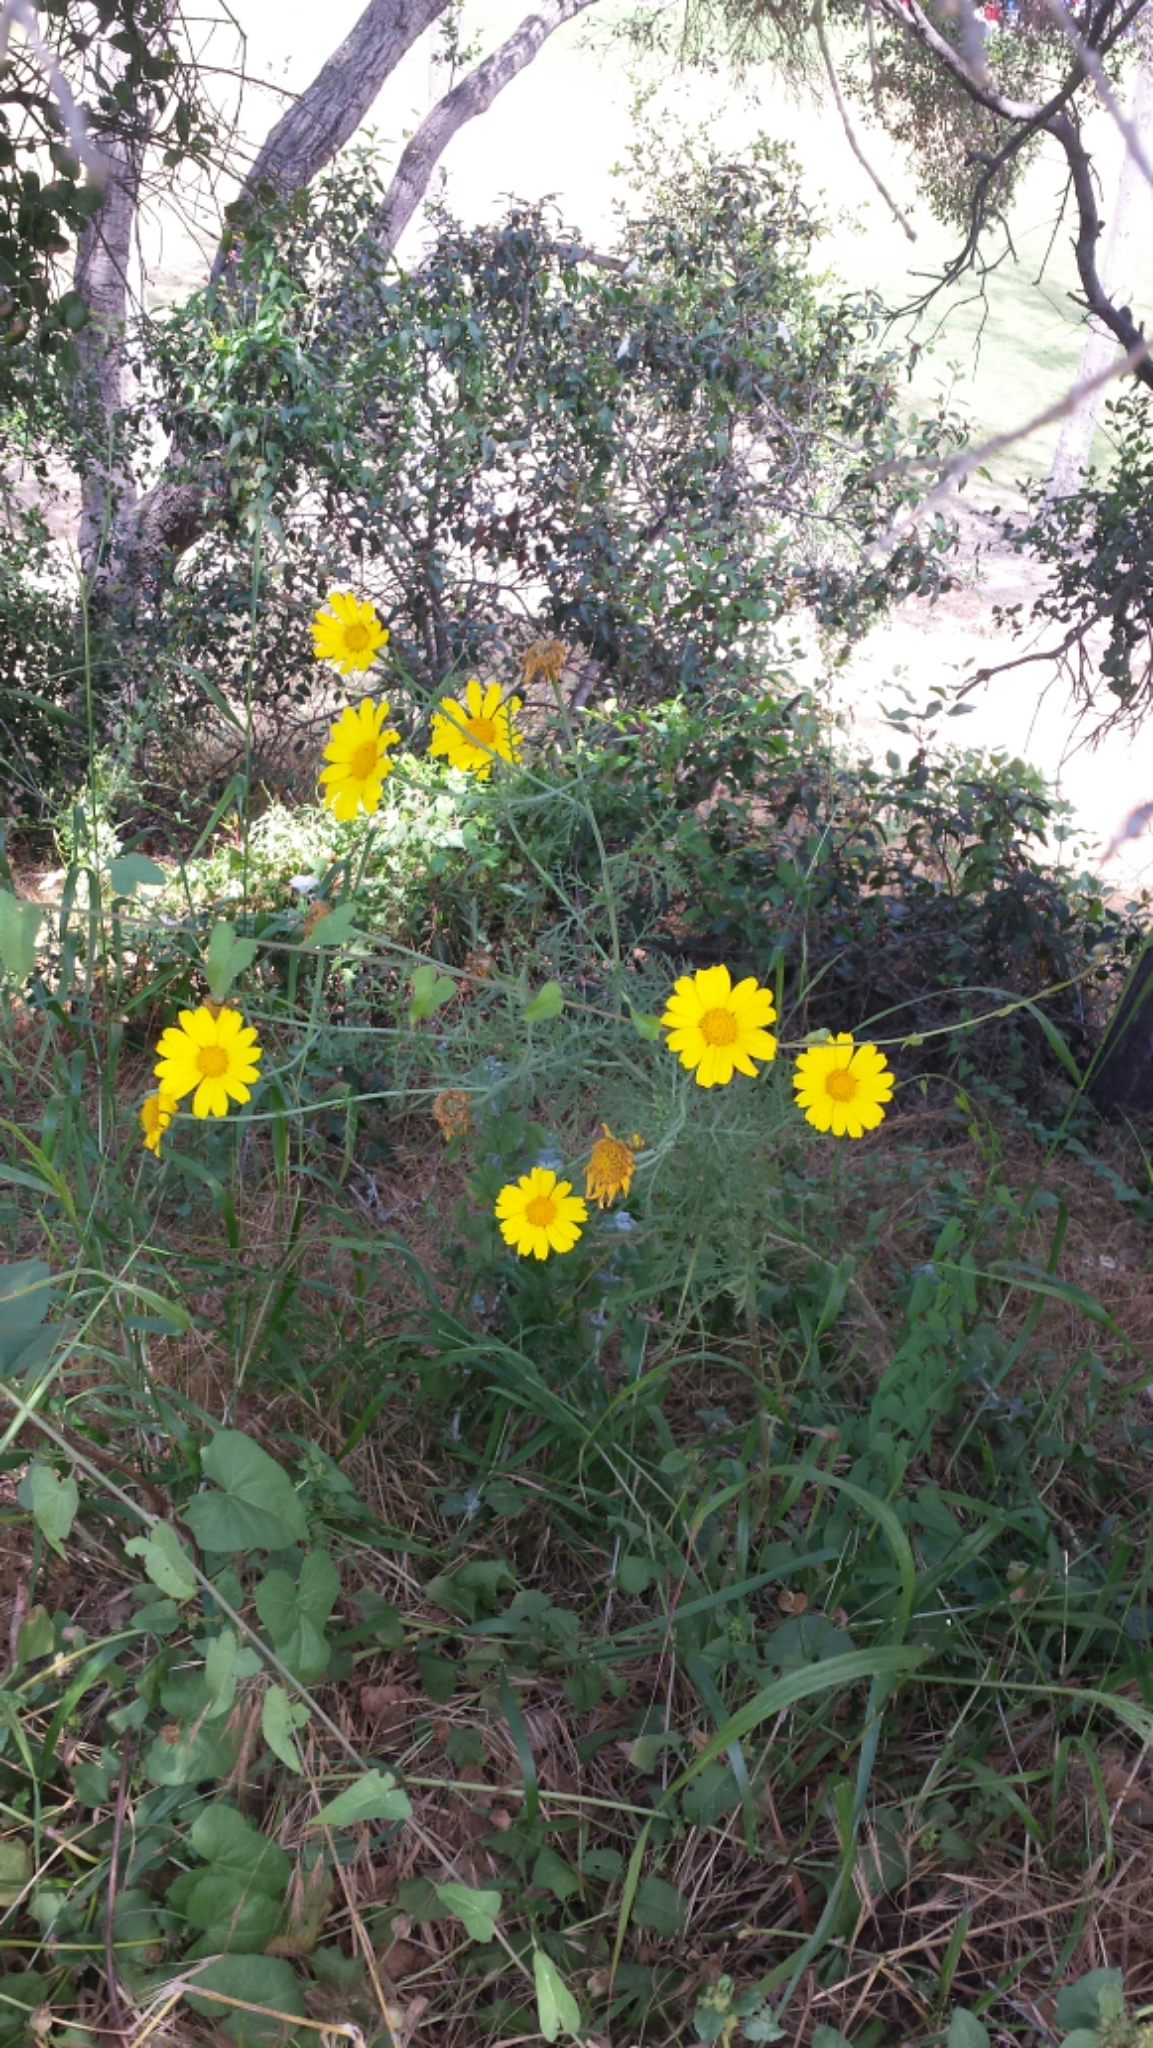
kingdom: Plantae
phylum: Tracheophyta
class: Magnoliopsida
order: Asterales
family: Asteraceae
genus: Glebionis
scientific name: Glebionis coronaria
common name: Crowndaisy
